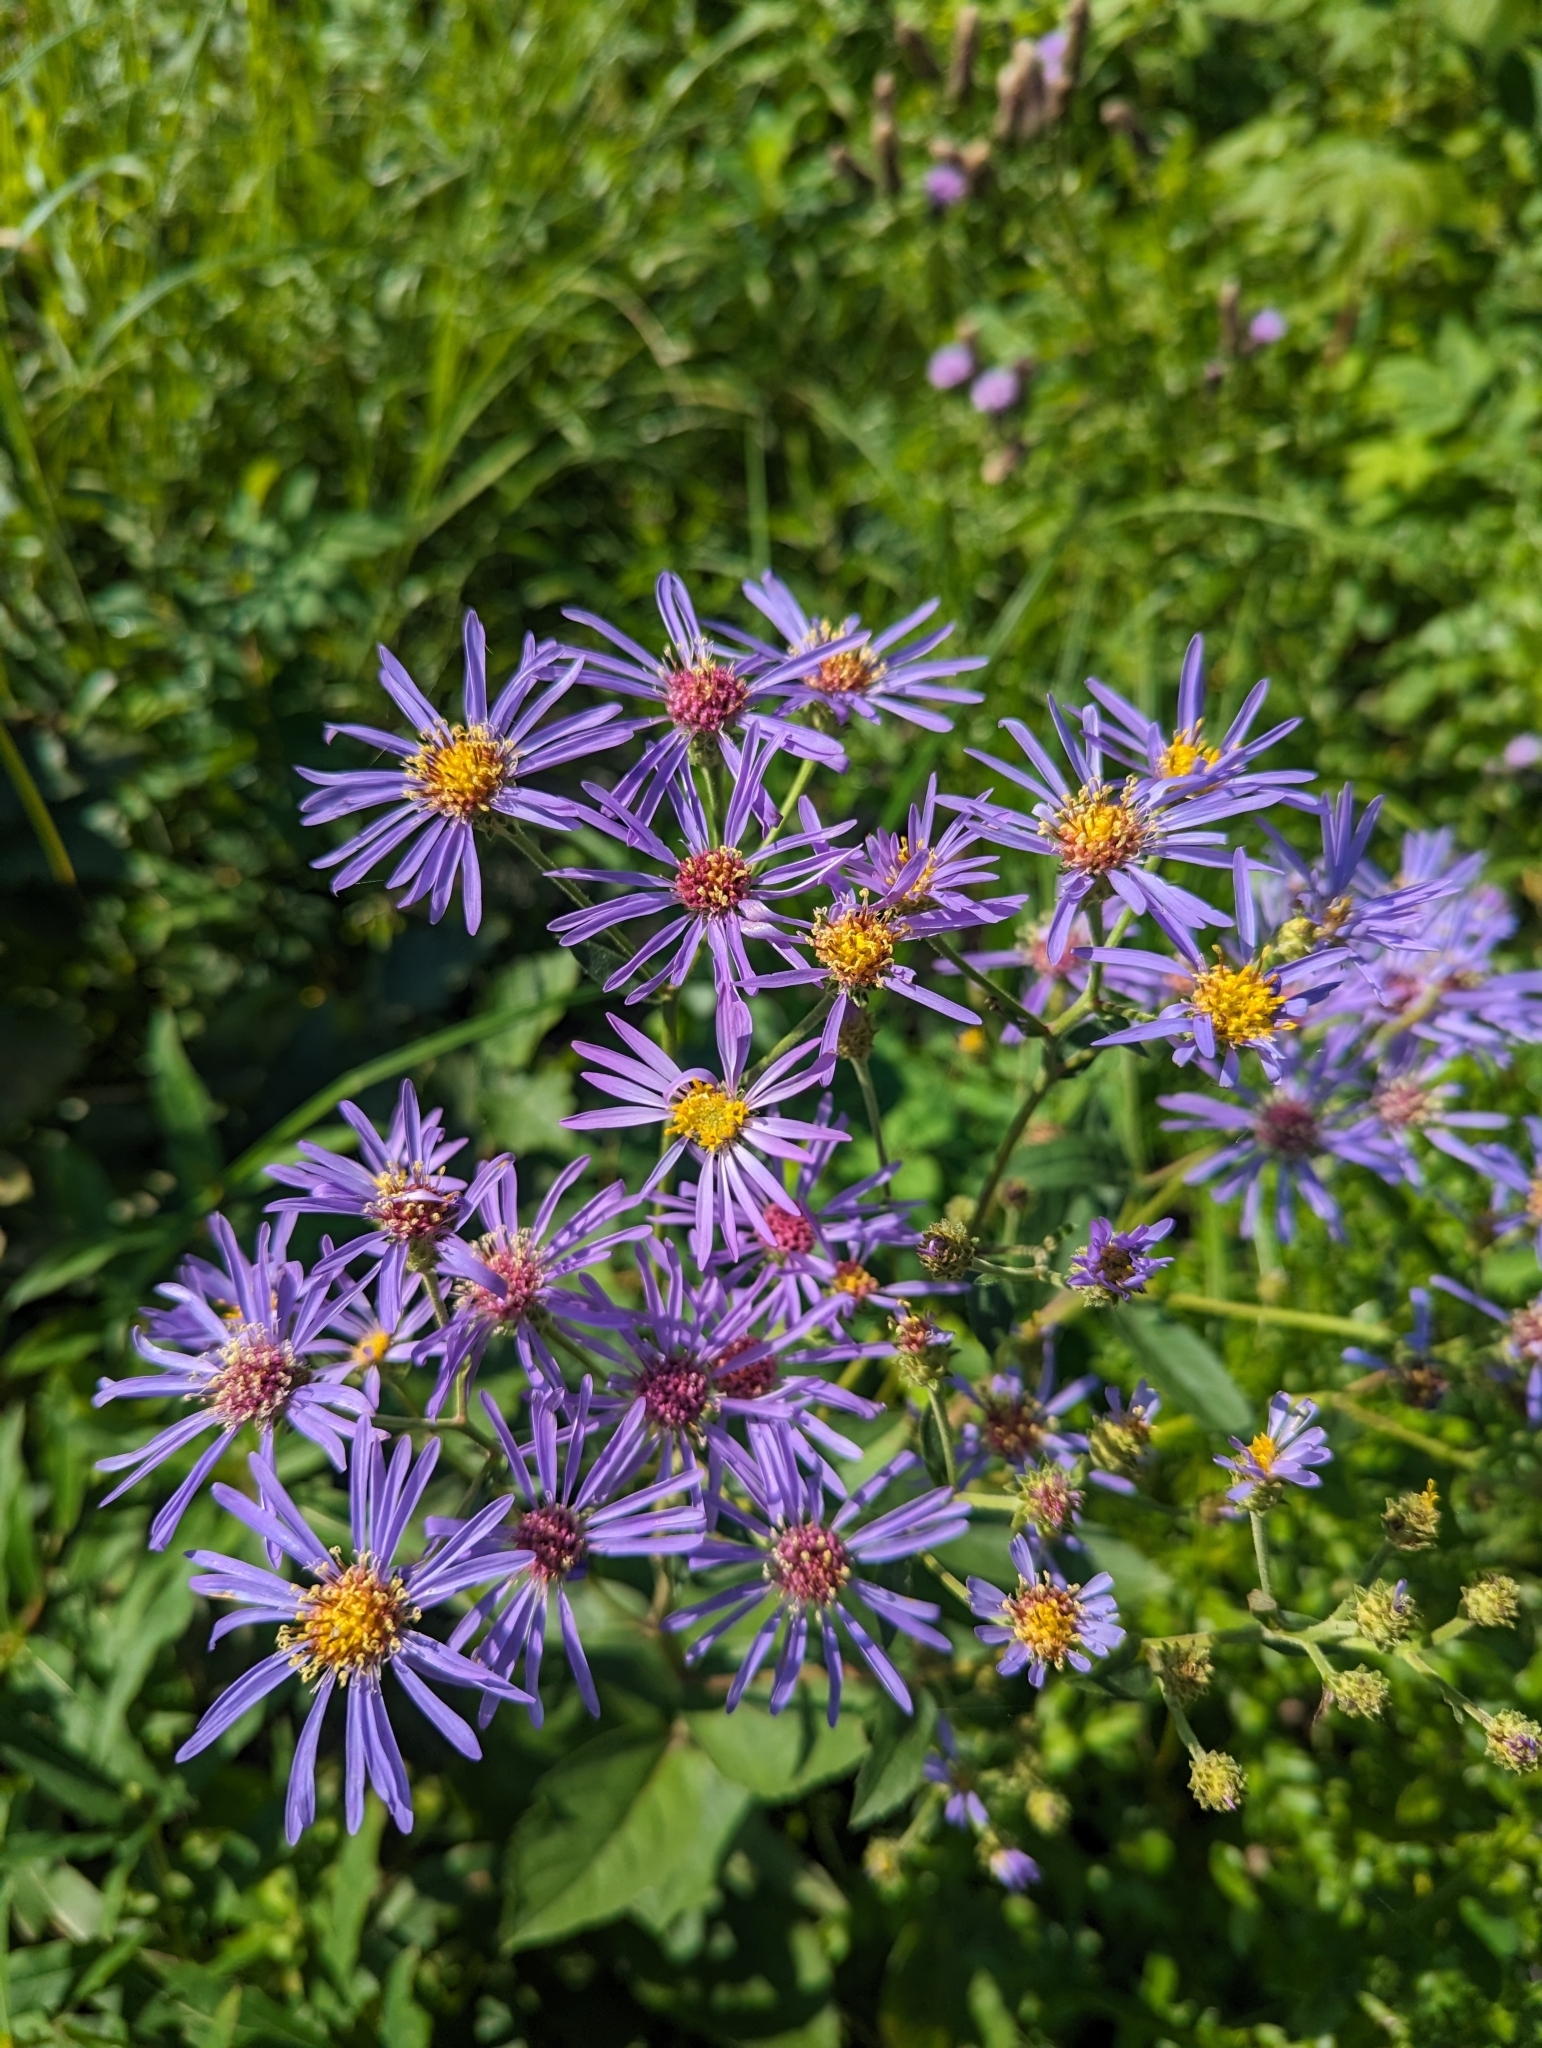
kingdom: Plantae
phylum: Tracheophyta
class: Magnoliopsida
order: Asterales
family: Asteraceae
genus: Eurybia
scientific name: Eurybia conspicua
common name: Showy aster
